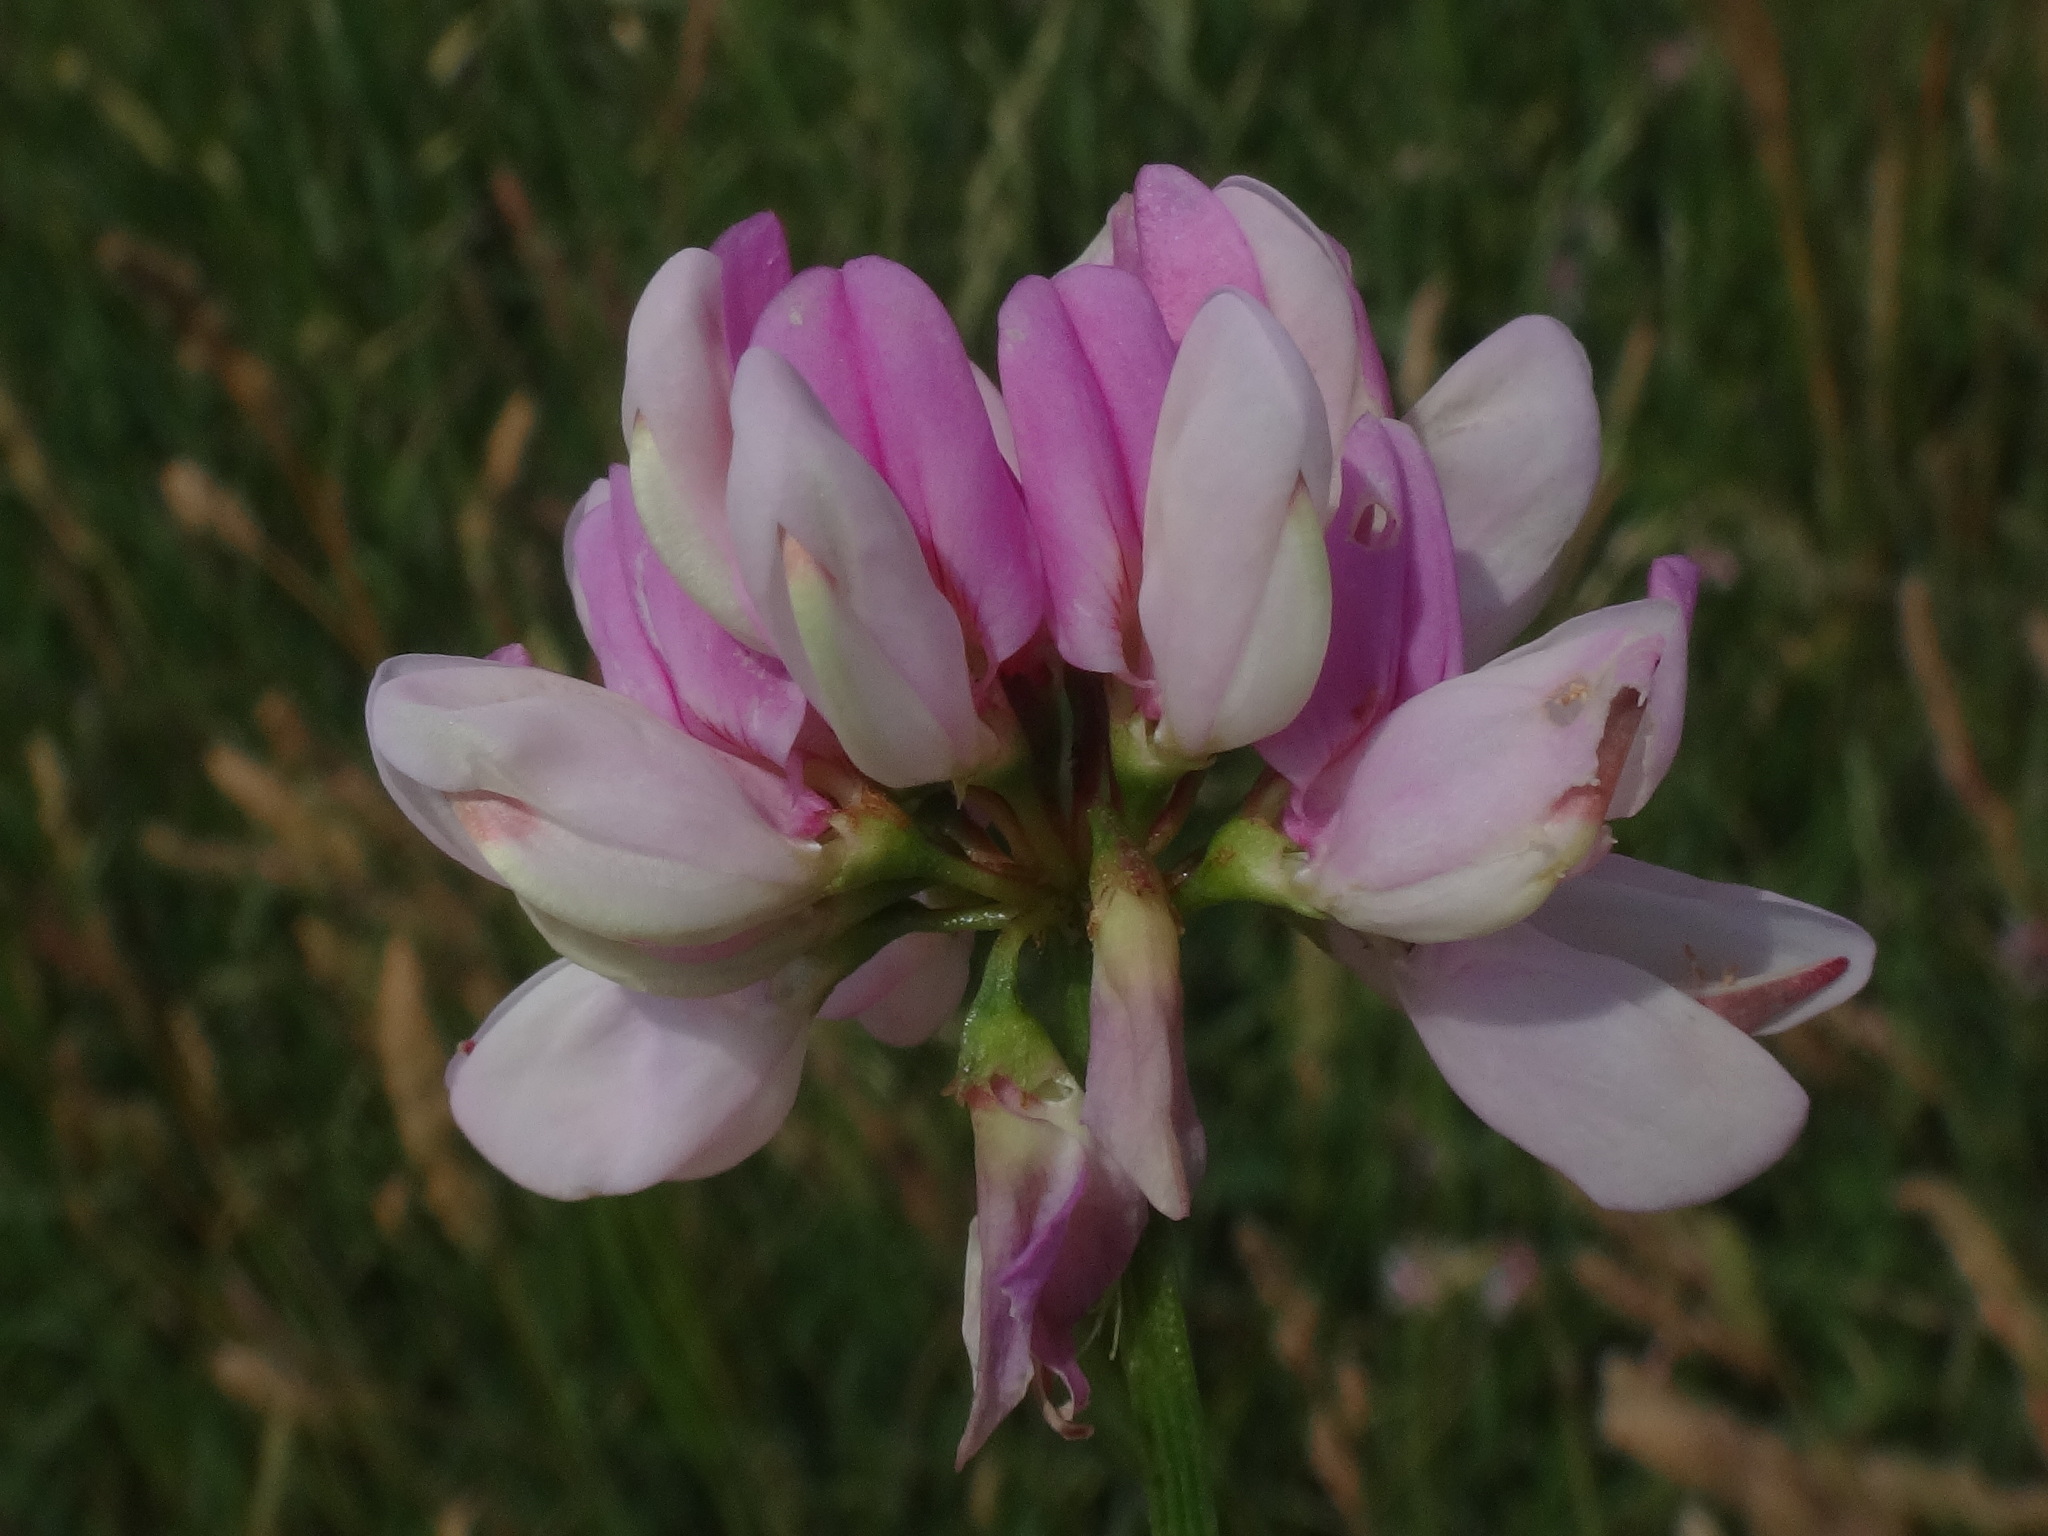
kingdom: Plantae
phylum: Tracheophyta
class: Magnoliopsida
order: Fabales
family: Fabaceae
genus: Coronilla
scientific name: Coronilla varia
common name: Crownvetch
